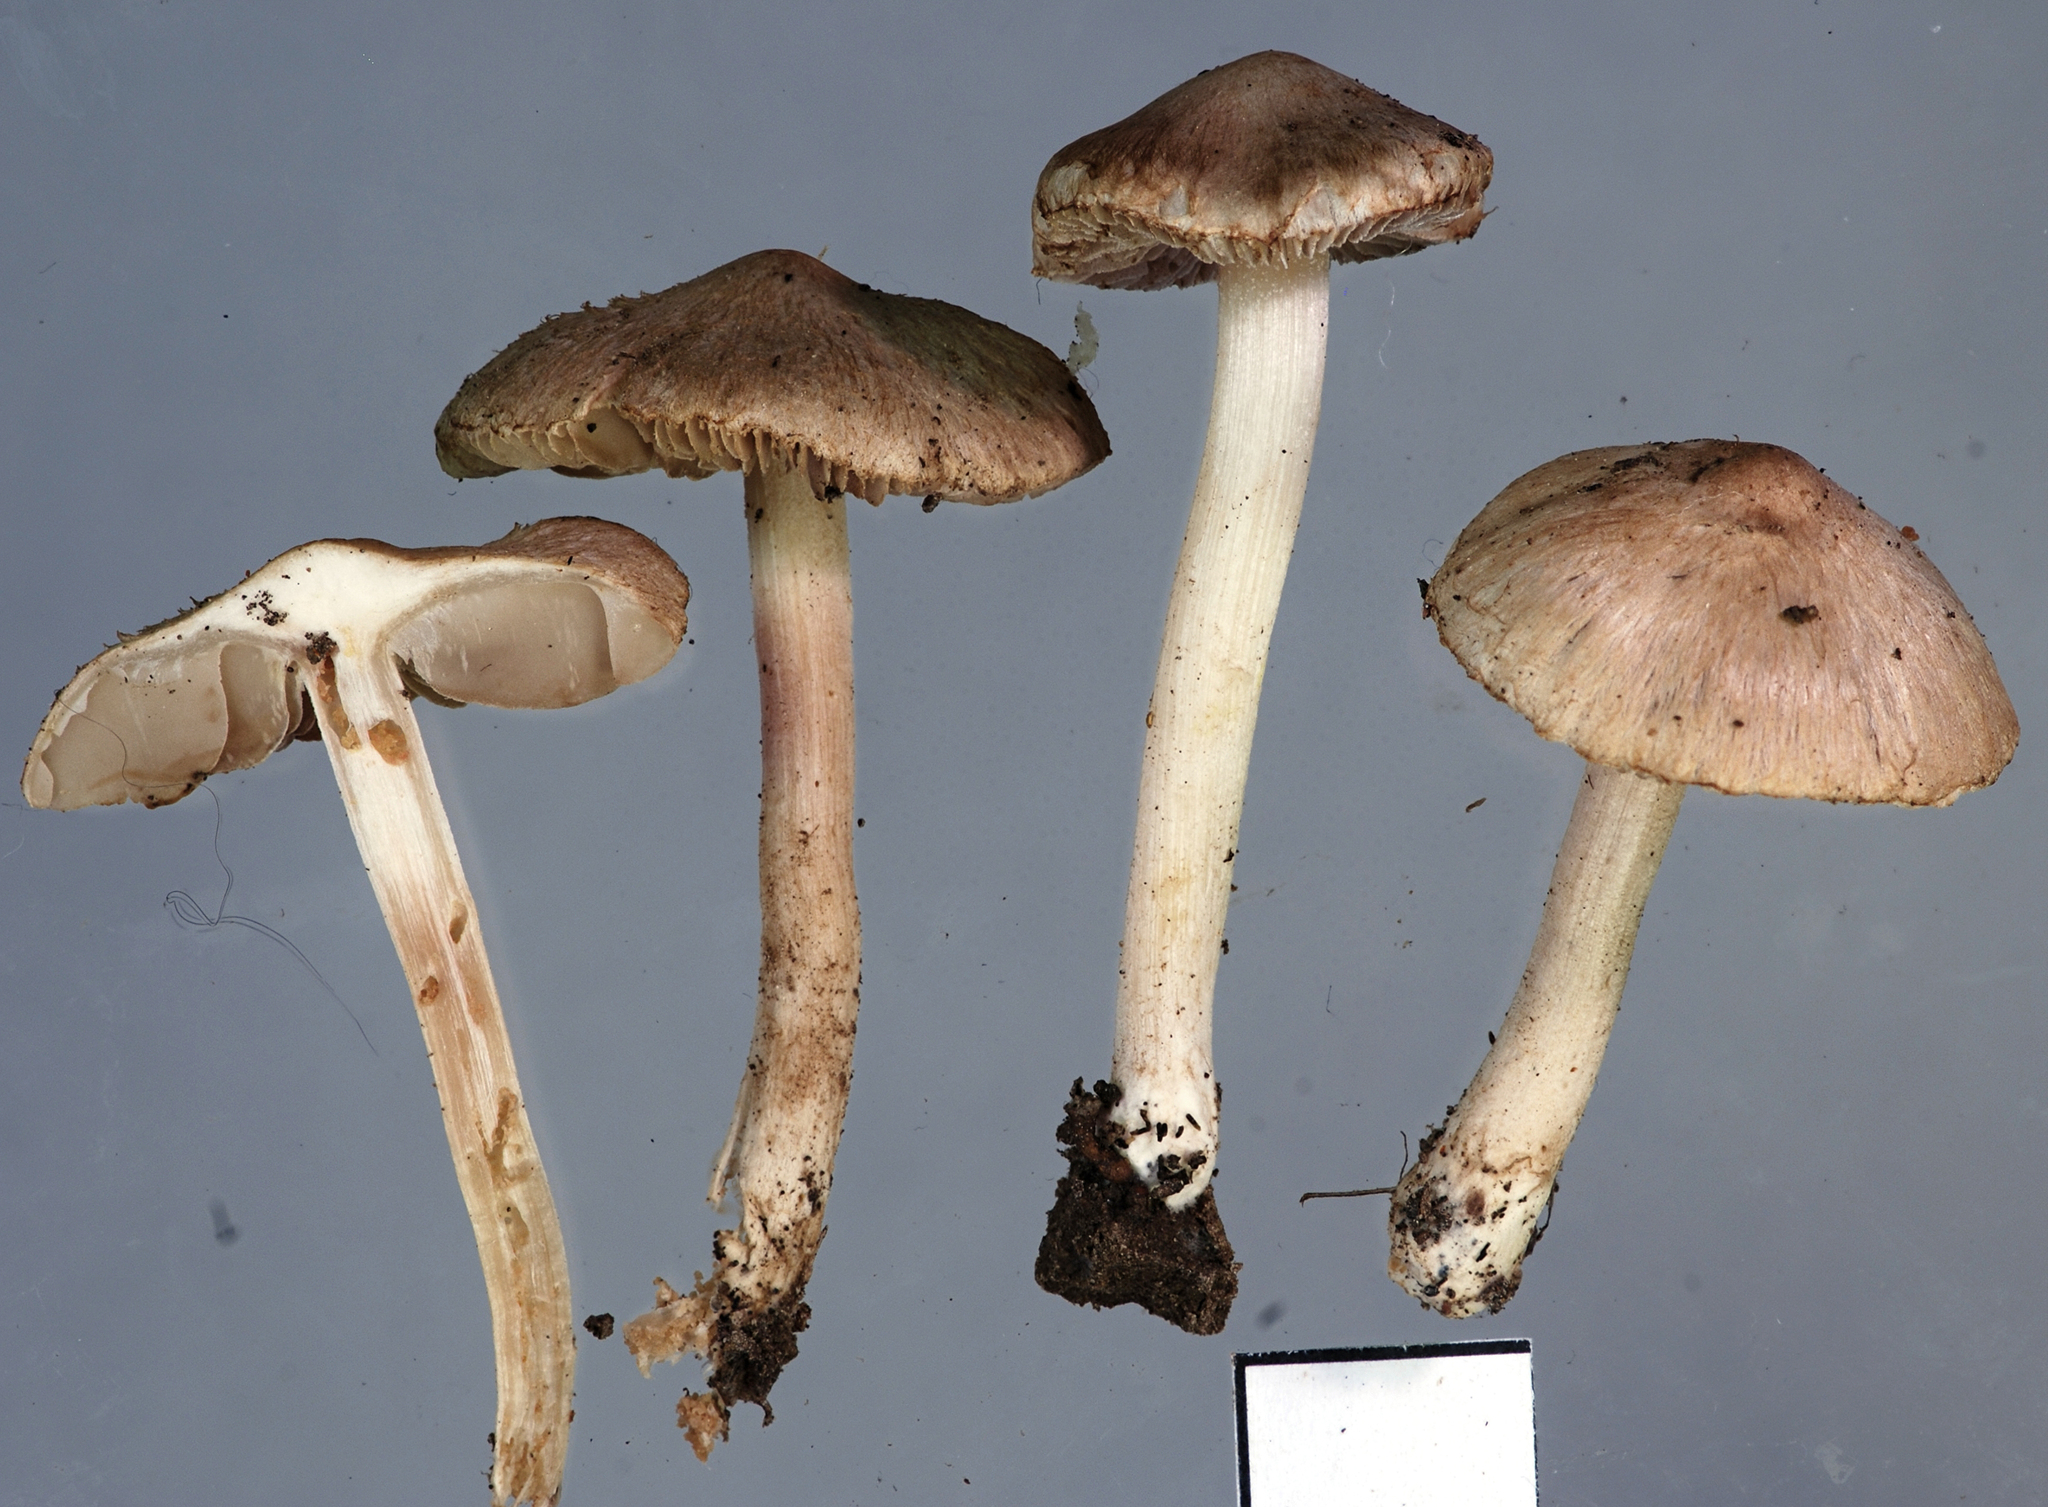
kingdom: Fungi
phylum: Basidiomycota
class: Agaricomycetes
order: Agaricales
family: Inocybaceae
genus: Inocybe
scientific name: Inocybe sindonia
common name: Beige fibrecap
